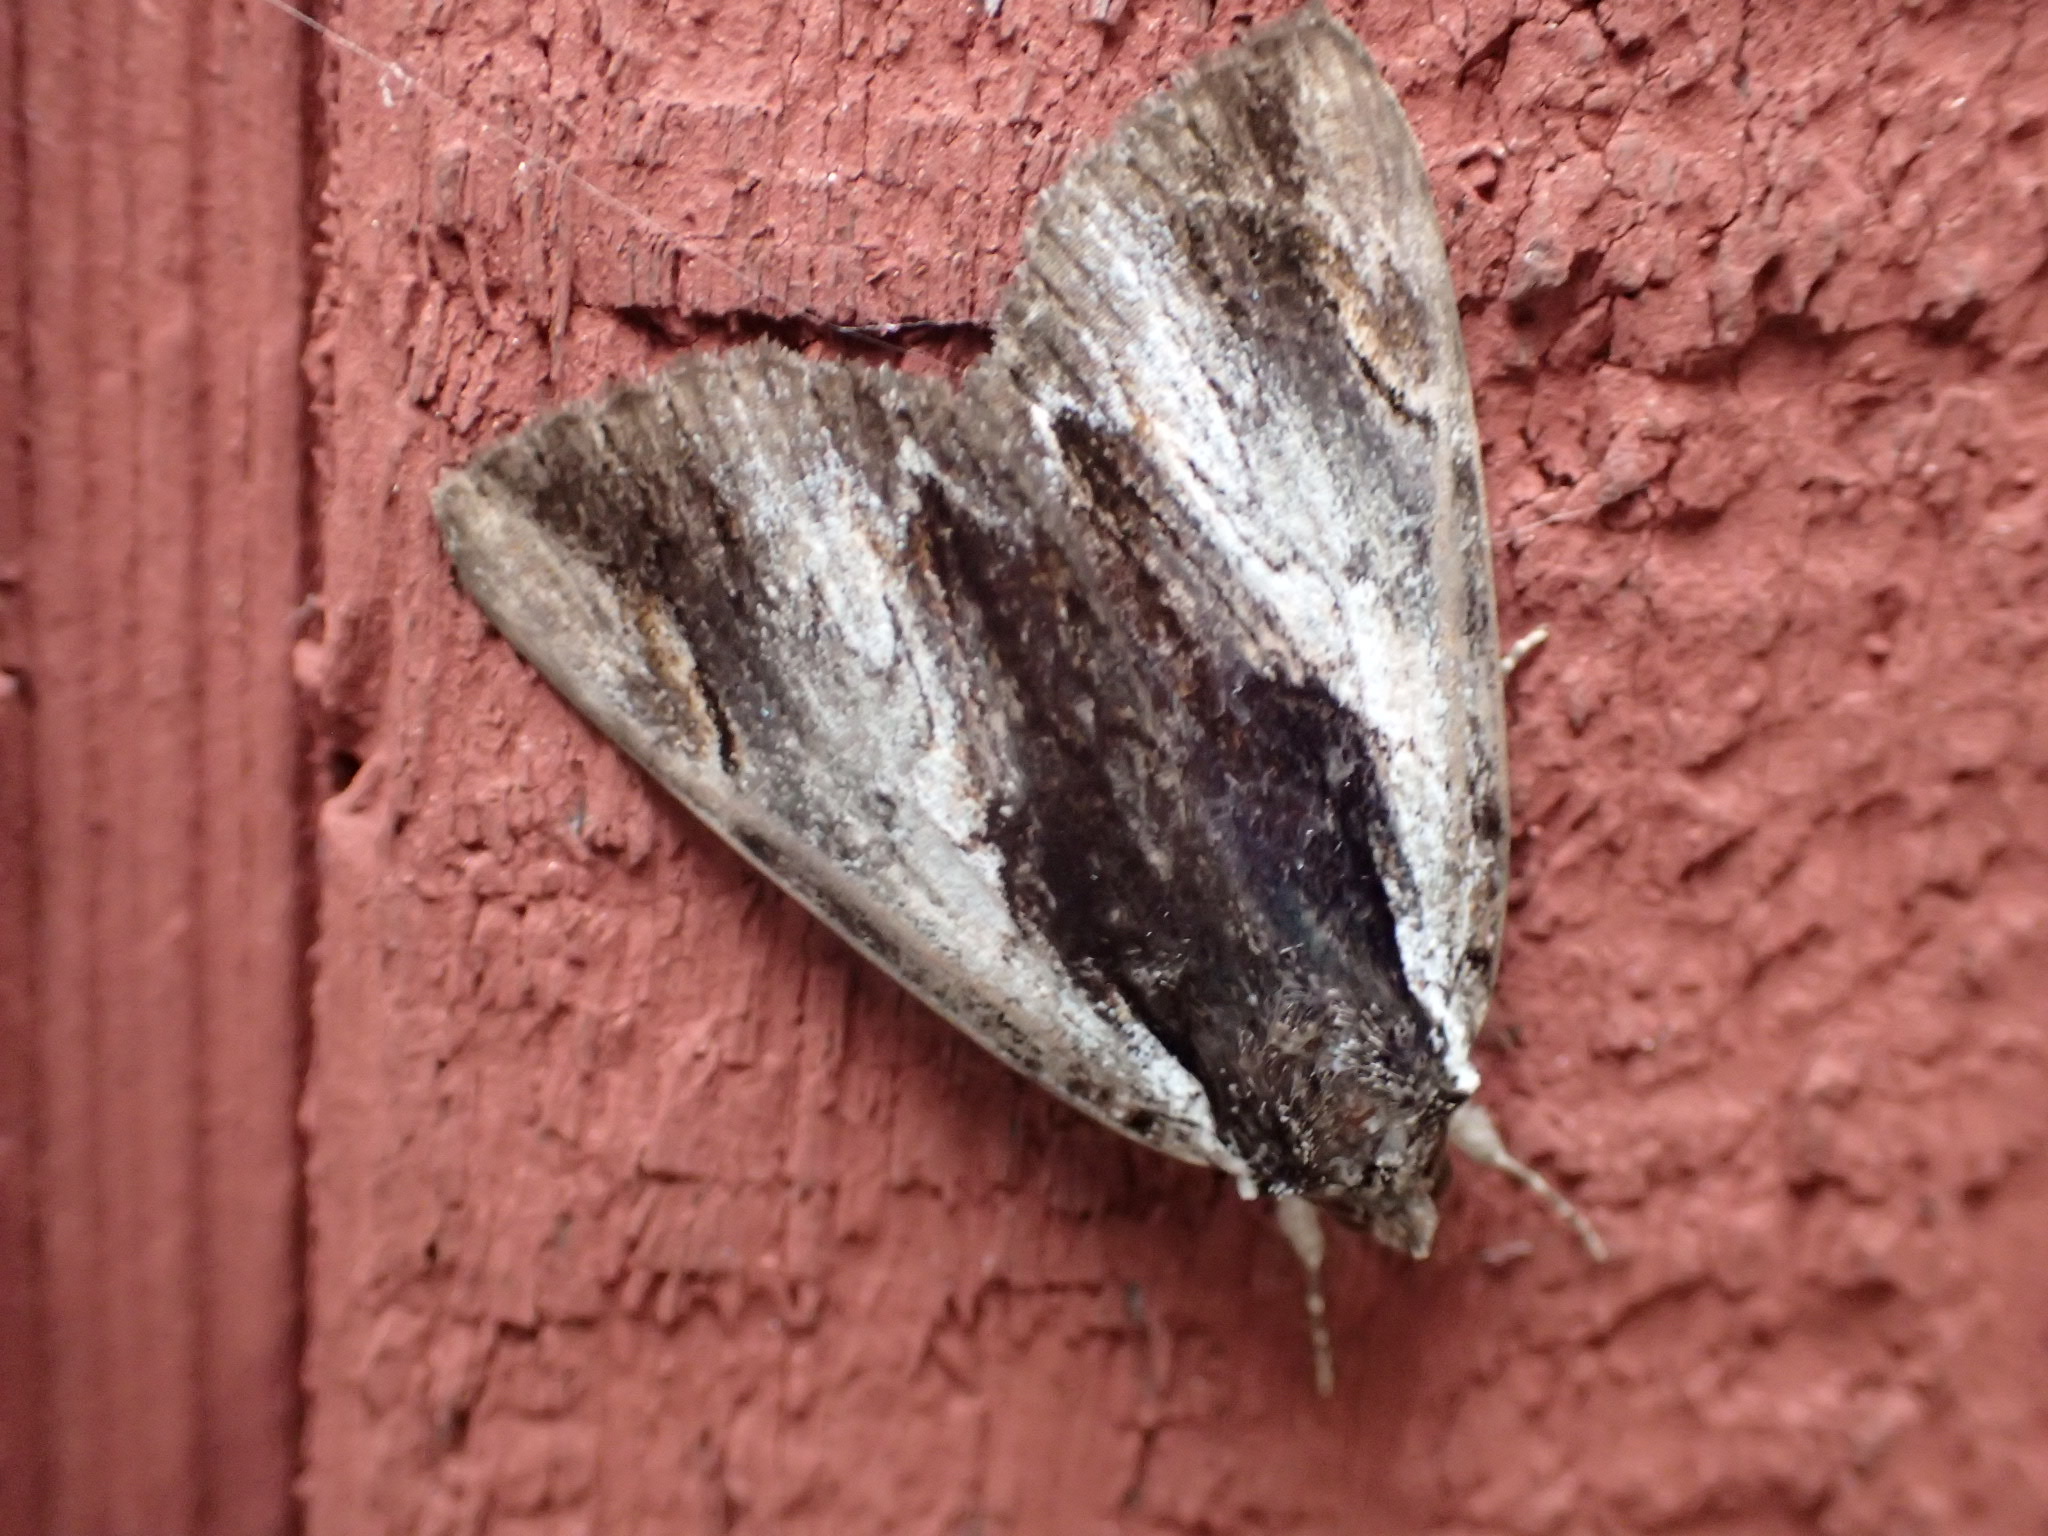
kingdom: Animalia
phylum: Arthropoda
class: Insecta
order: Lepidoptera
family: Erebidae
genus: Catocala
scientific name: Catocala ultronia
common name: Ultronia underwing
